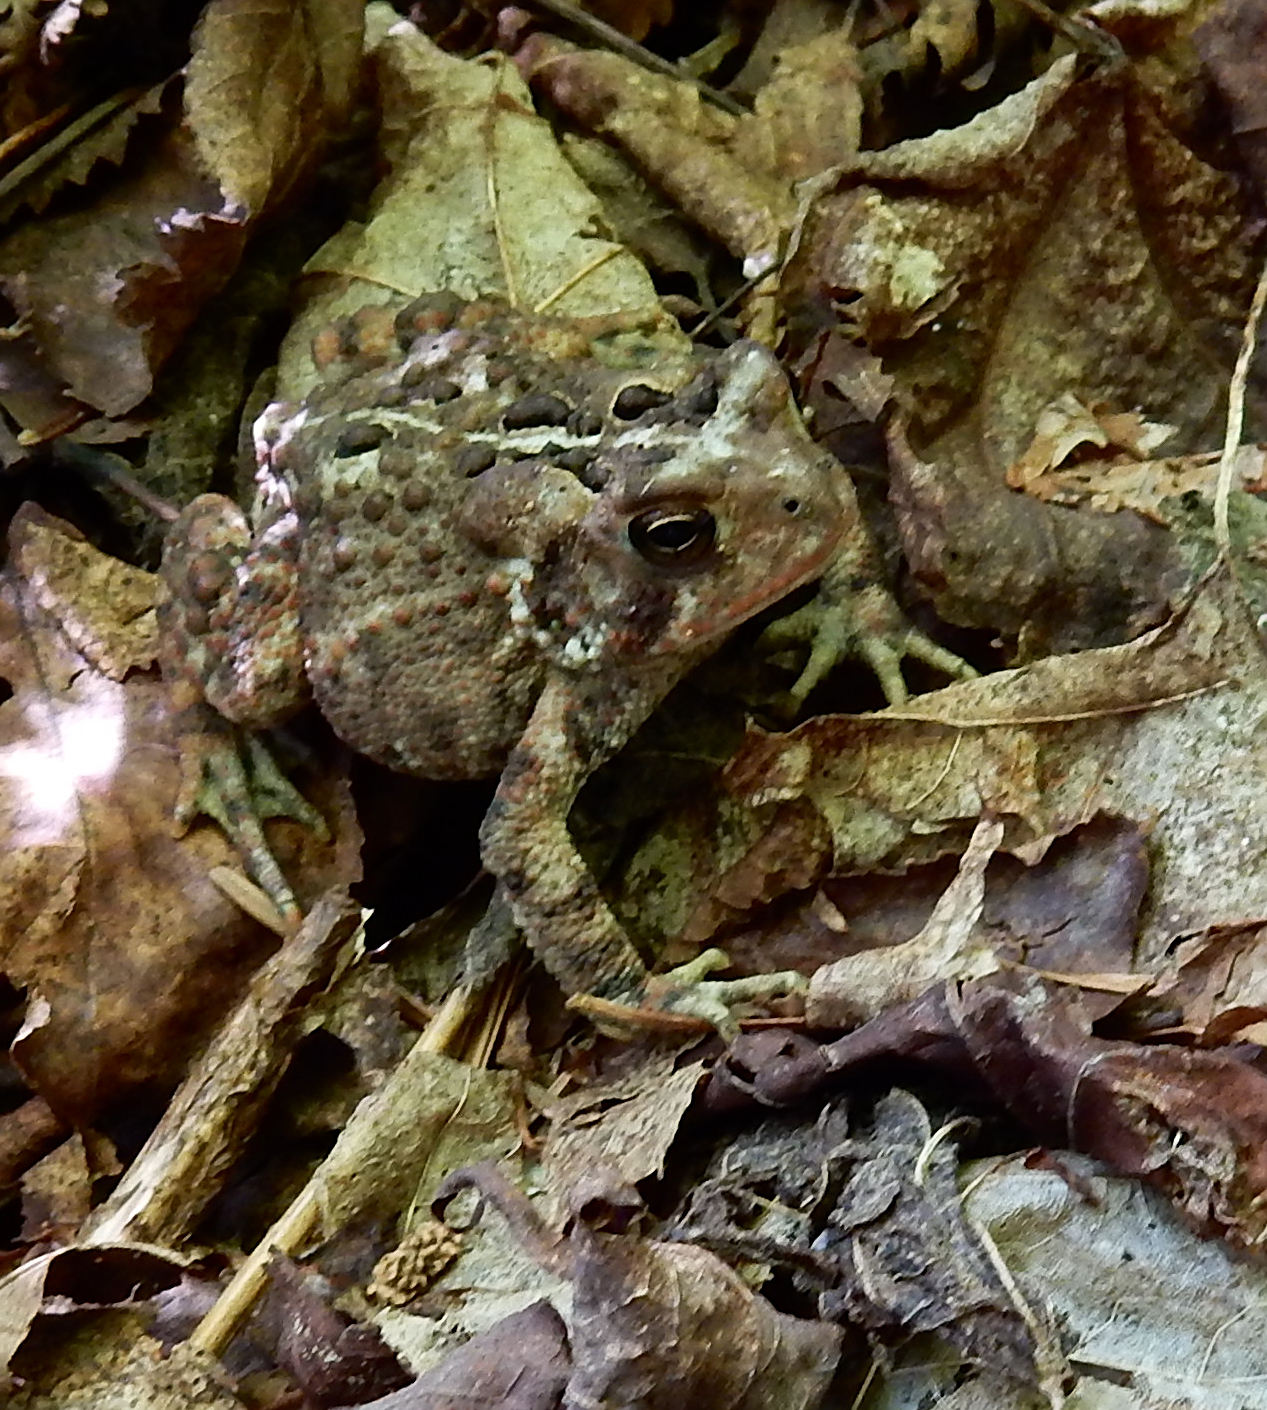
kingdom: Animalia
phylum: Chordata
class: Amphibia
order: Anura
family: Bufonidae
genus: Anaxyrus
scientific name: Anaxyrus americanus
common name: American toad
